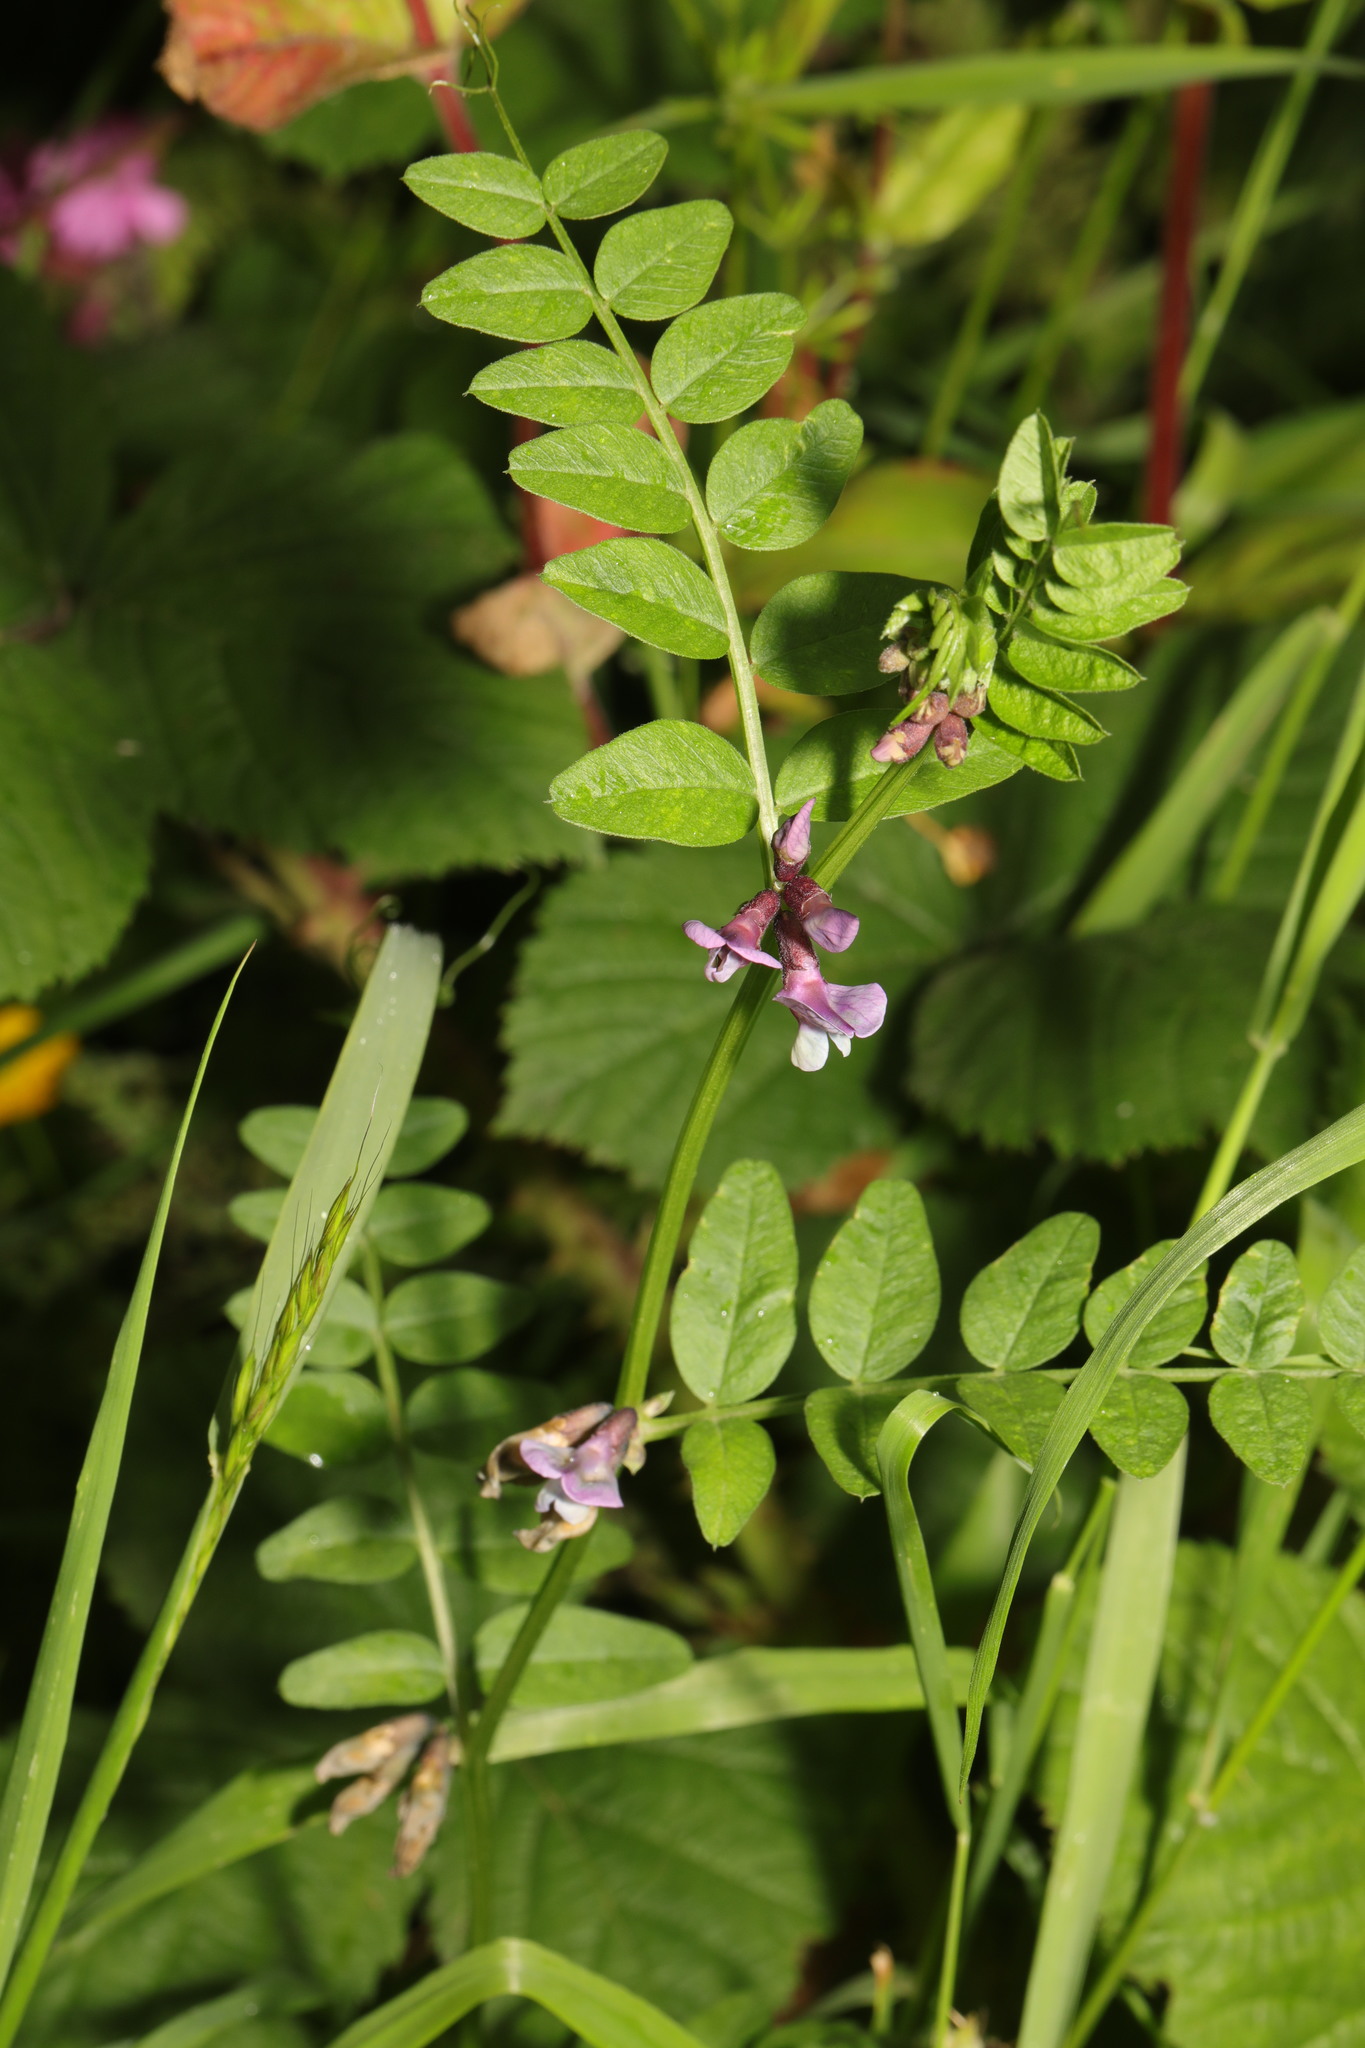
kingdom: Plantae
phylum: Tracheophyta
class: Magnoliopsida
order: Fabales
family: Fabaceae
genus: Vicia
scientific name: Vicia sepium
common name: Bush vetch
